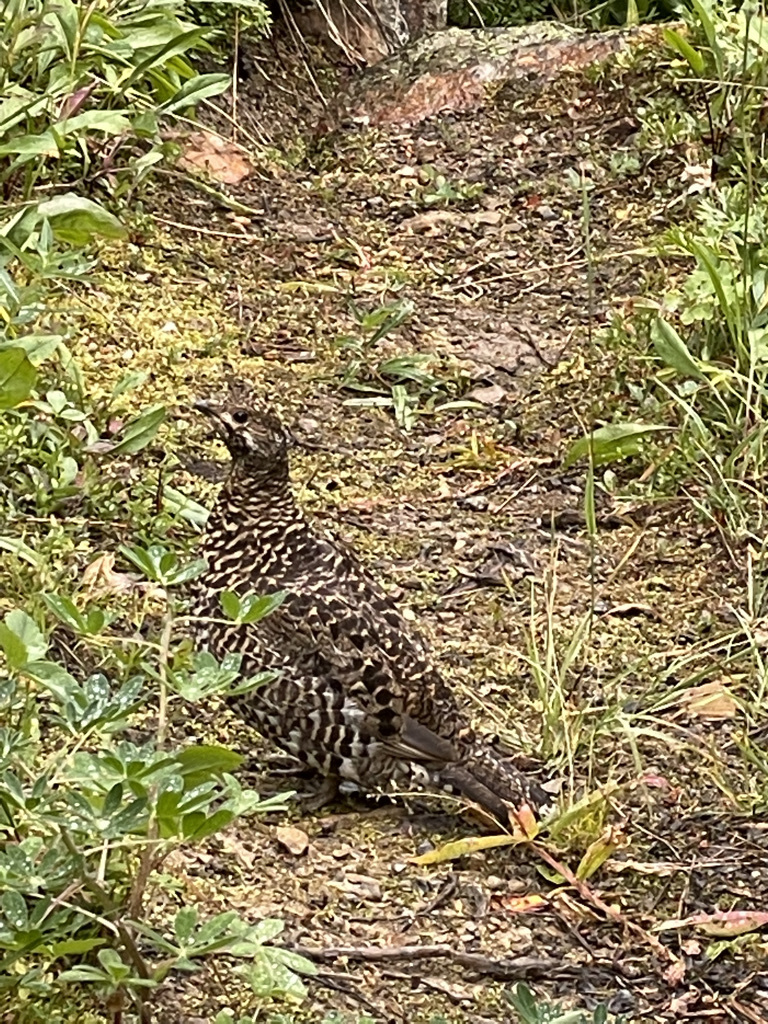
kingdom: Animalia
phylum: Chordata
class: Aves
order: Galliformes
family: Phasianidae
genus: Canachites
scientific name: Canachites canadensis
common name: Spruce grouse
